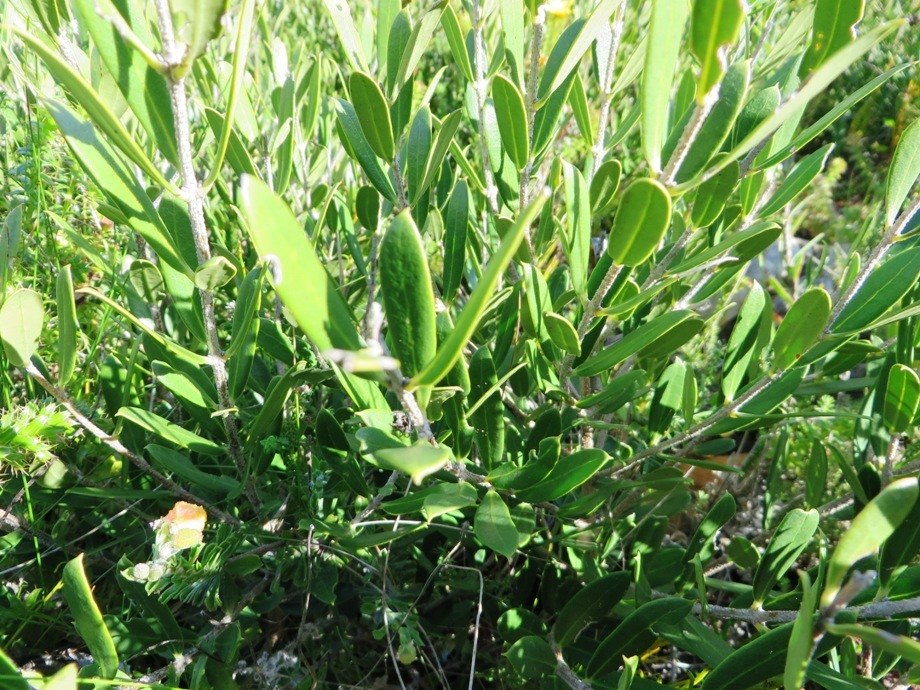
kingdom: Plantae
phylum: Tracheophyta
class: Magnoliopsida
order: Lamiales
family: Oleaceae
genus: Olea
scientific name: Olea exasperata
